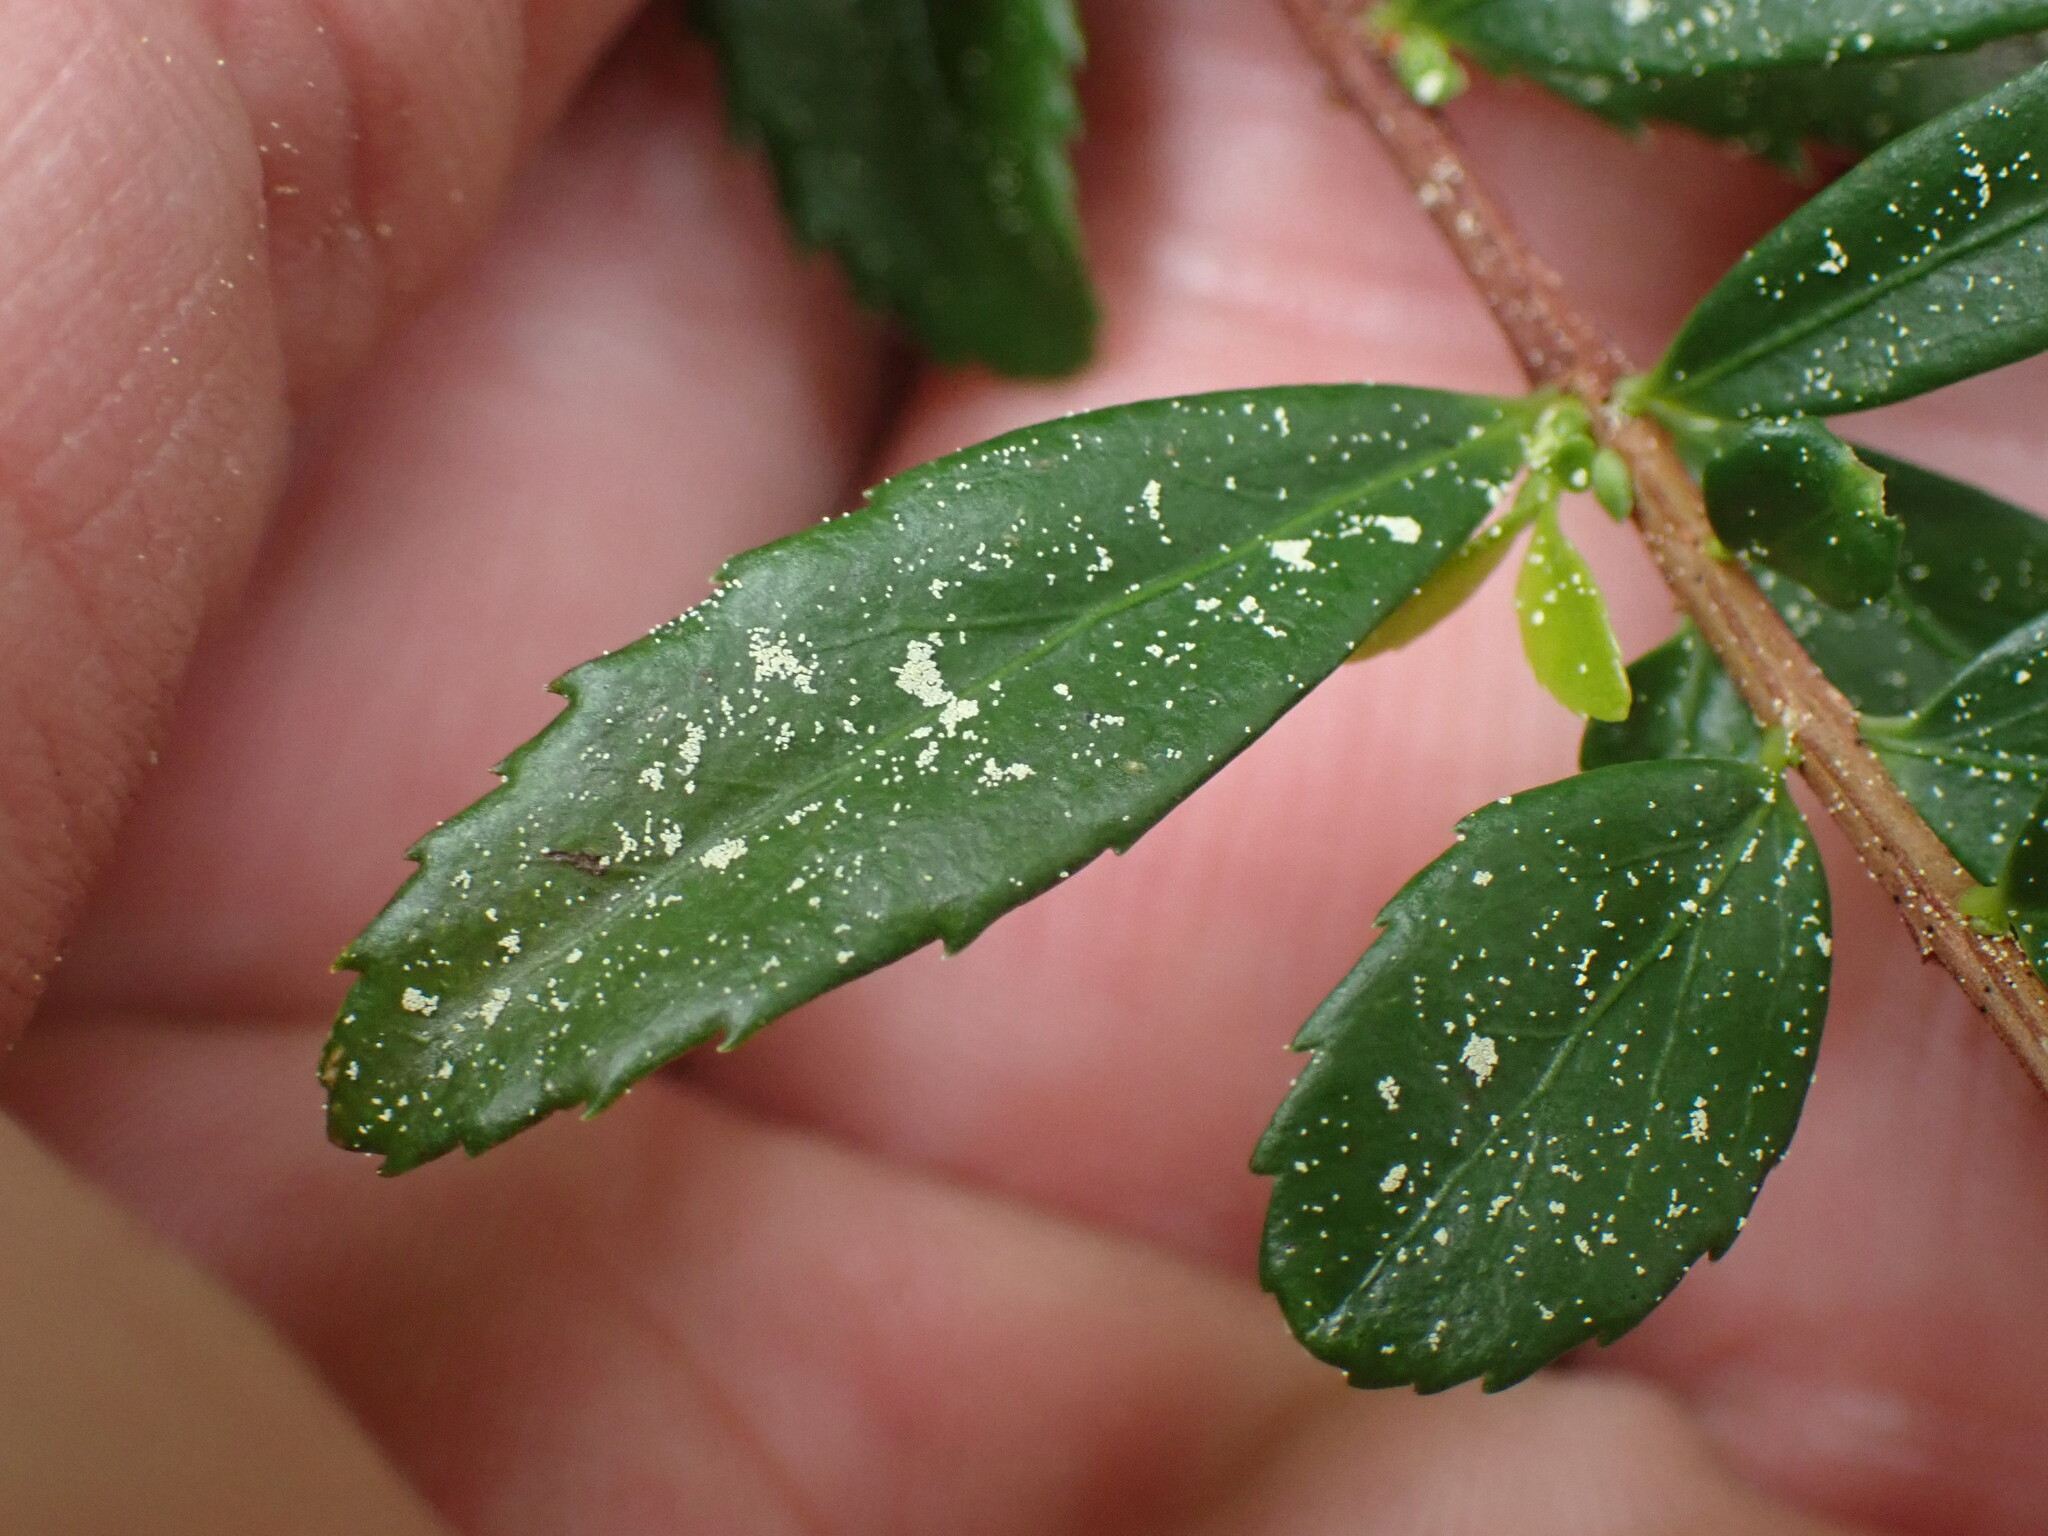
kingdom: Plantae
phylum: Tracheophyta
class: Magnoliopsida
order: Celastrales
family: Celastraceae
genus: Paxistima
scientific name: Paxistima myrsinites
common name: Mountain-lover
